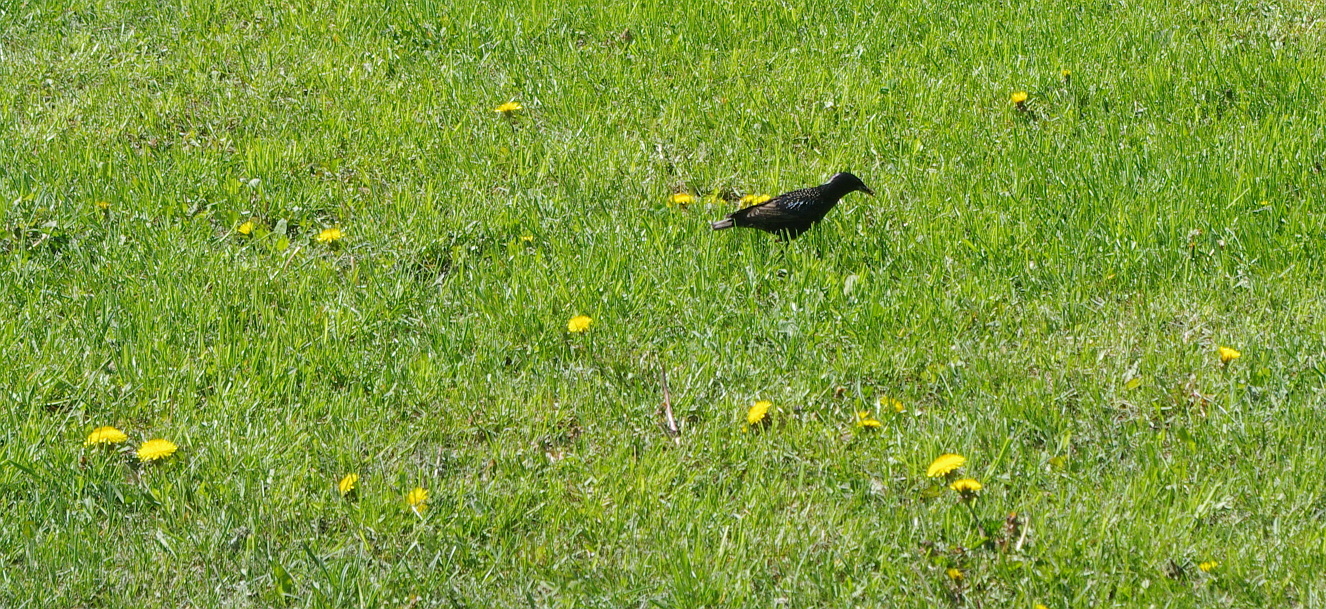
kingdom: Animalia
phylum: Chordata
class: Aves
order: Passeriformes
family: Sturnidae
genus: Sturnus
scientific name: Sturnus vulgaris
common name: Common starling
